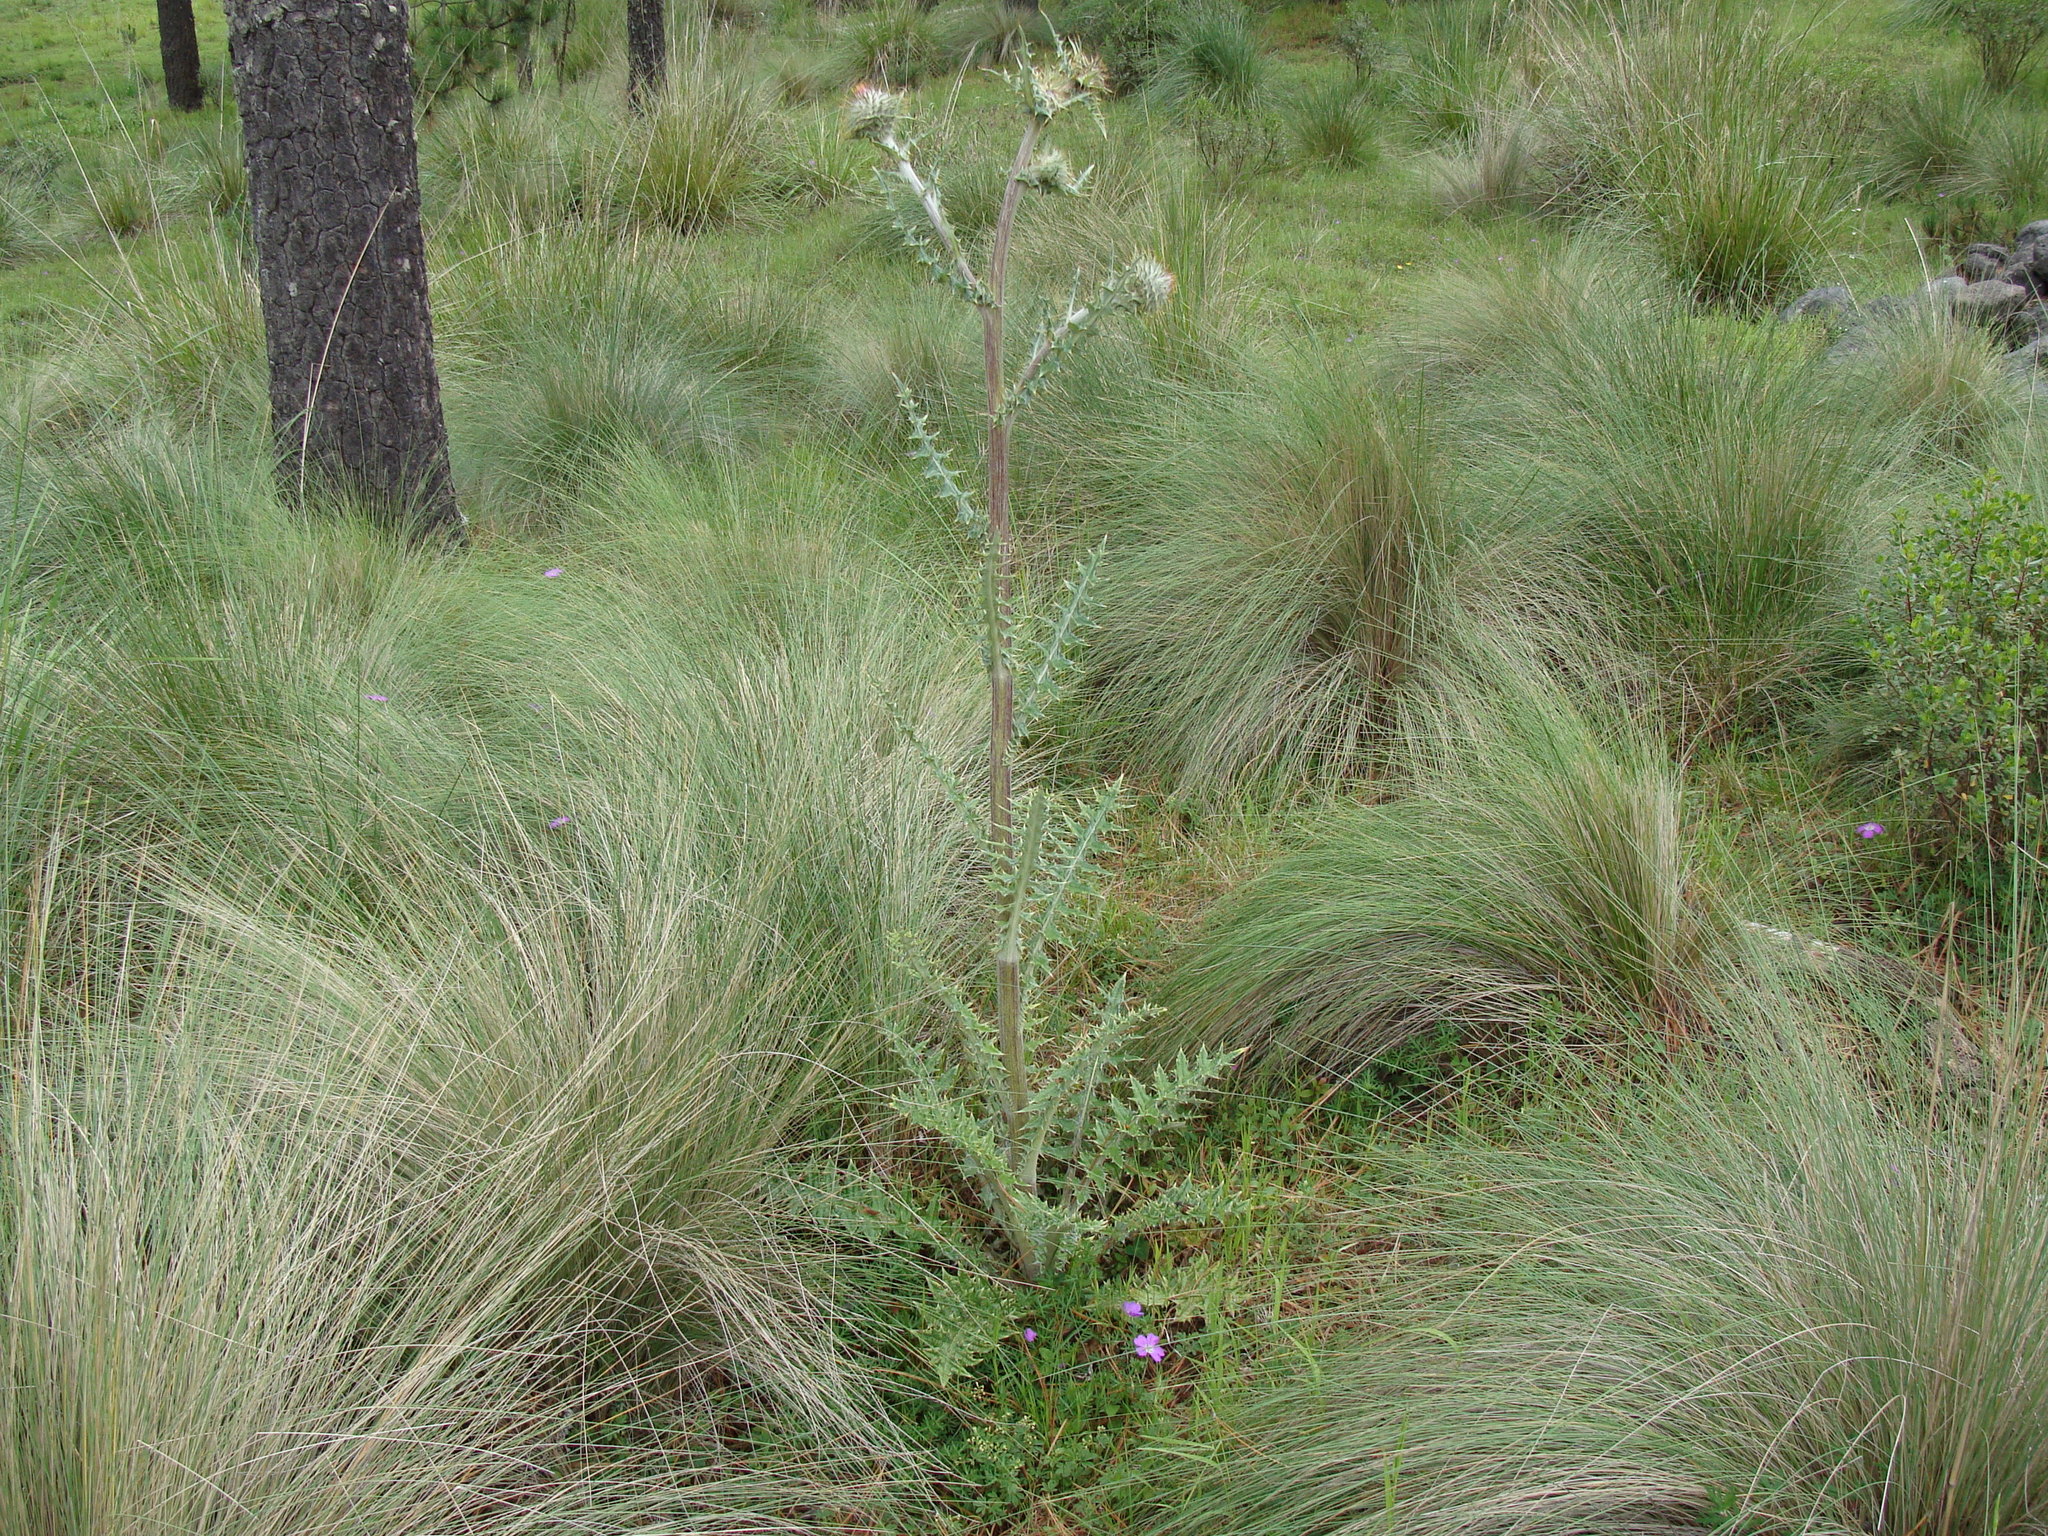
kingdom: Plantae
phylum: Tracheophyta
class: Magnoliopsida
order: Asterales
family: Asteraceae
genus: Cirsium
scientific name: Cirsium ehrenbergii
